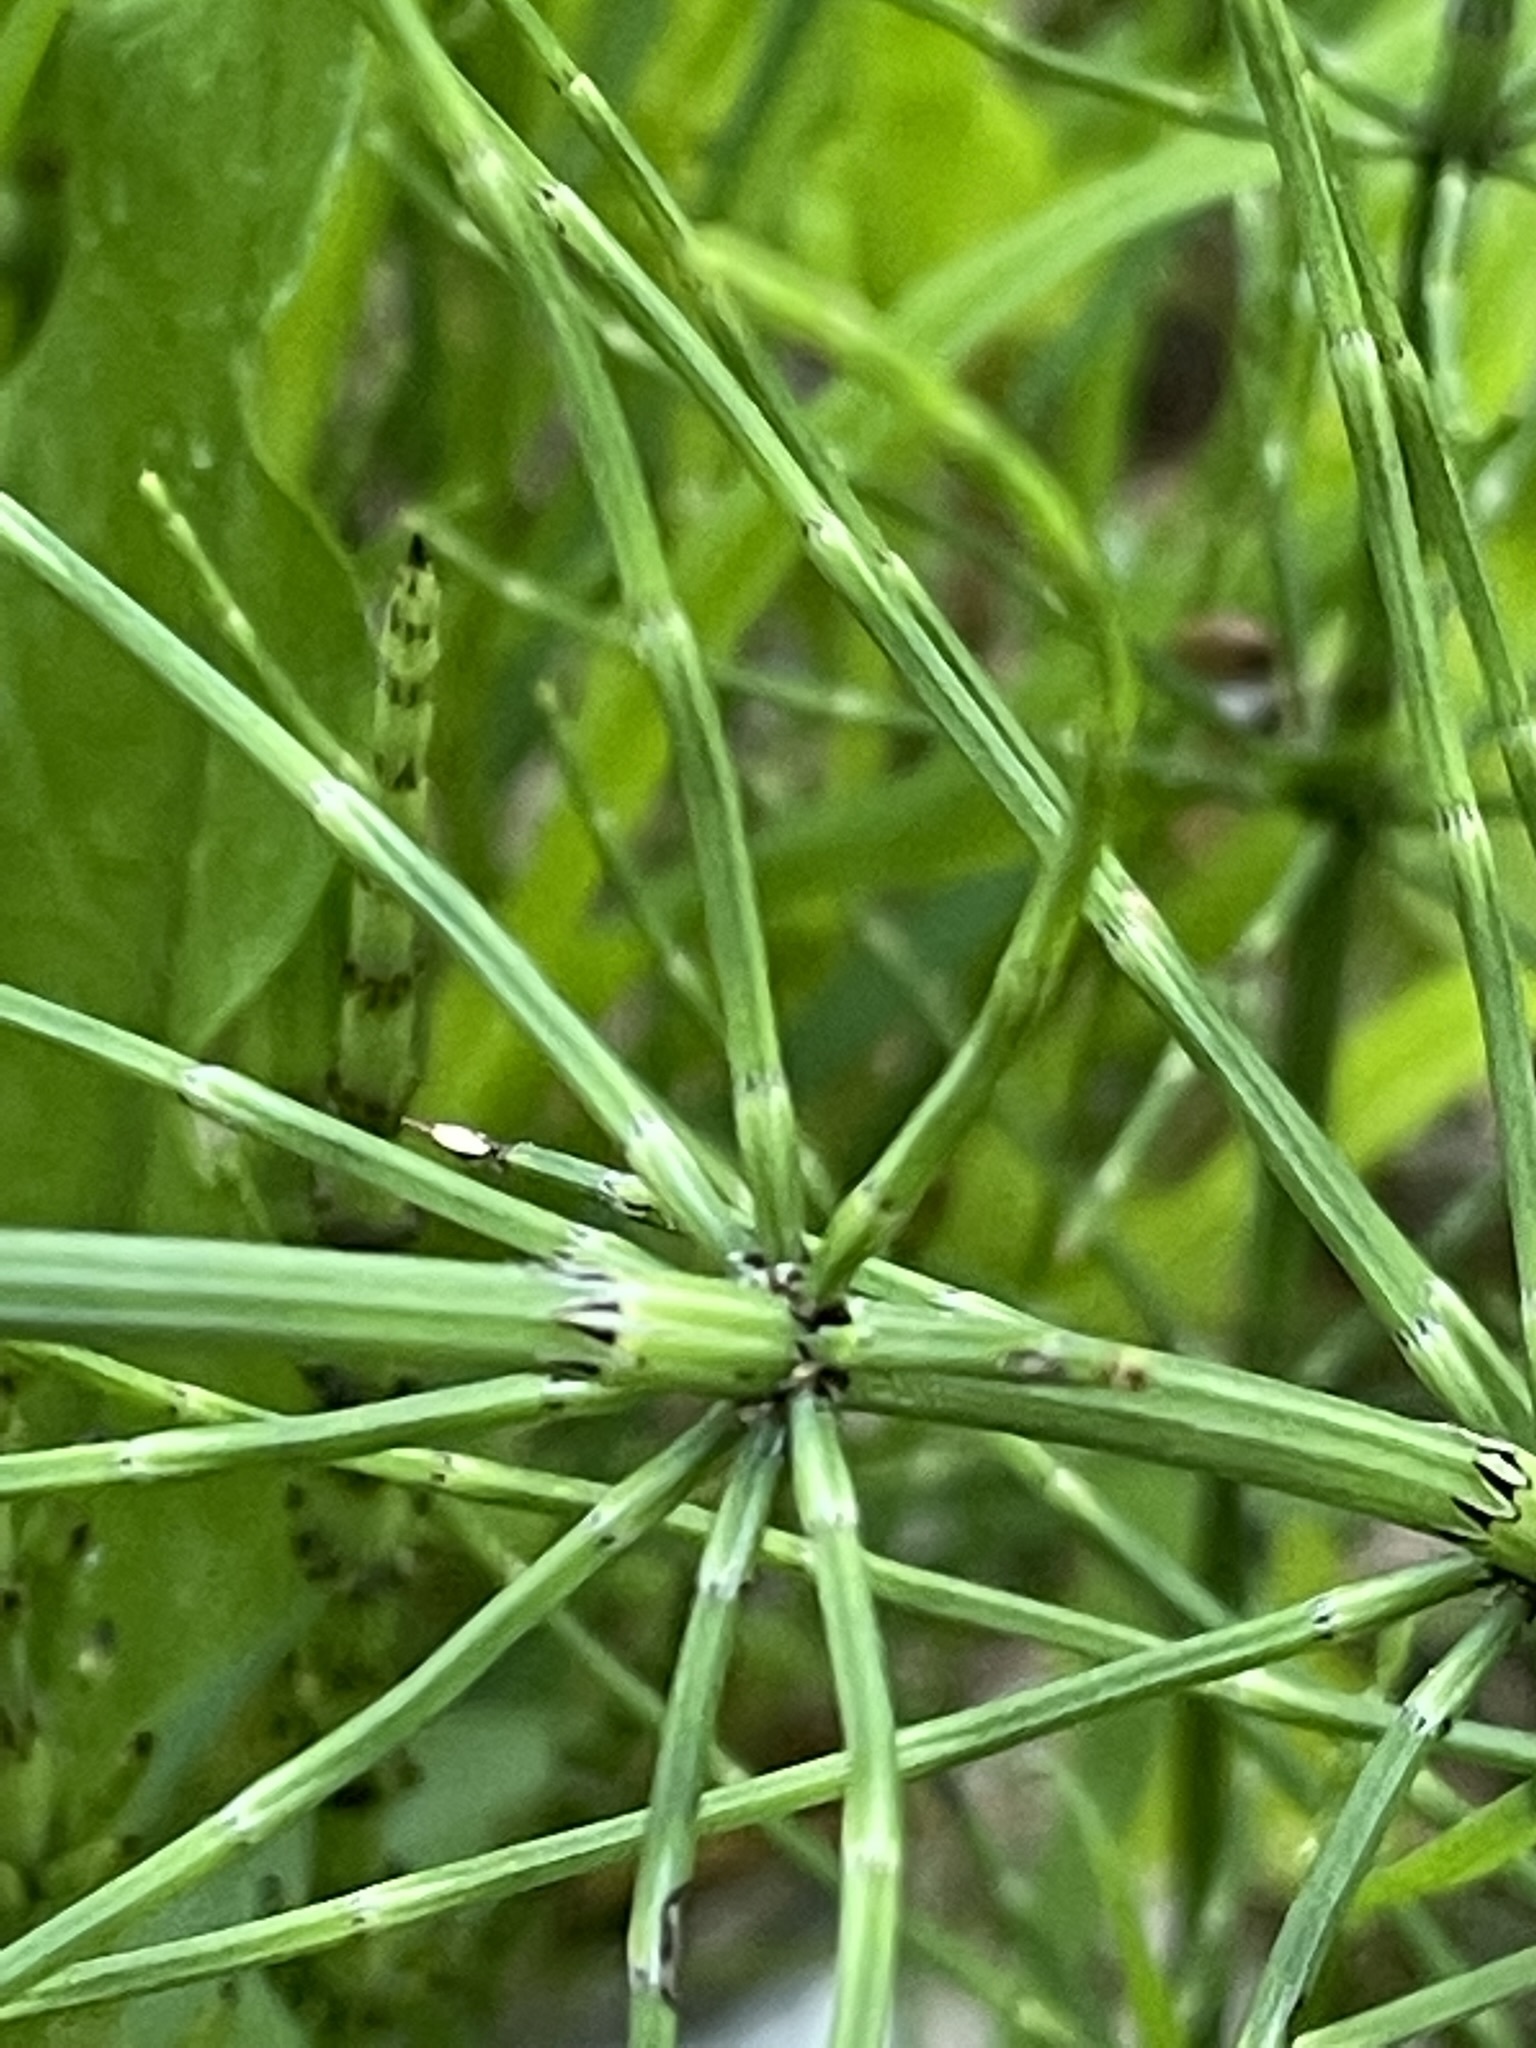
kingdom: Plantae
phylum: Tracheophyta
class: Polypodiopsida
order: Equisetales
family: Equisetaceae
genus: Equisetum
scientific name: Equisetum palustre
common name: Marsh horsetail
